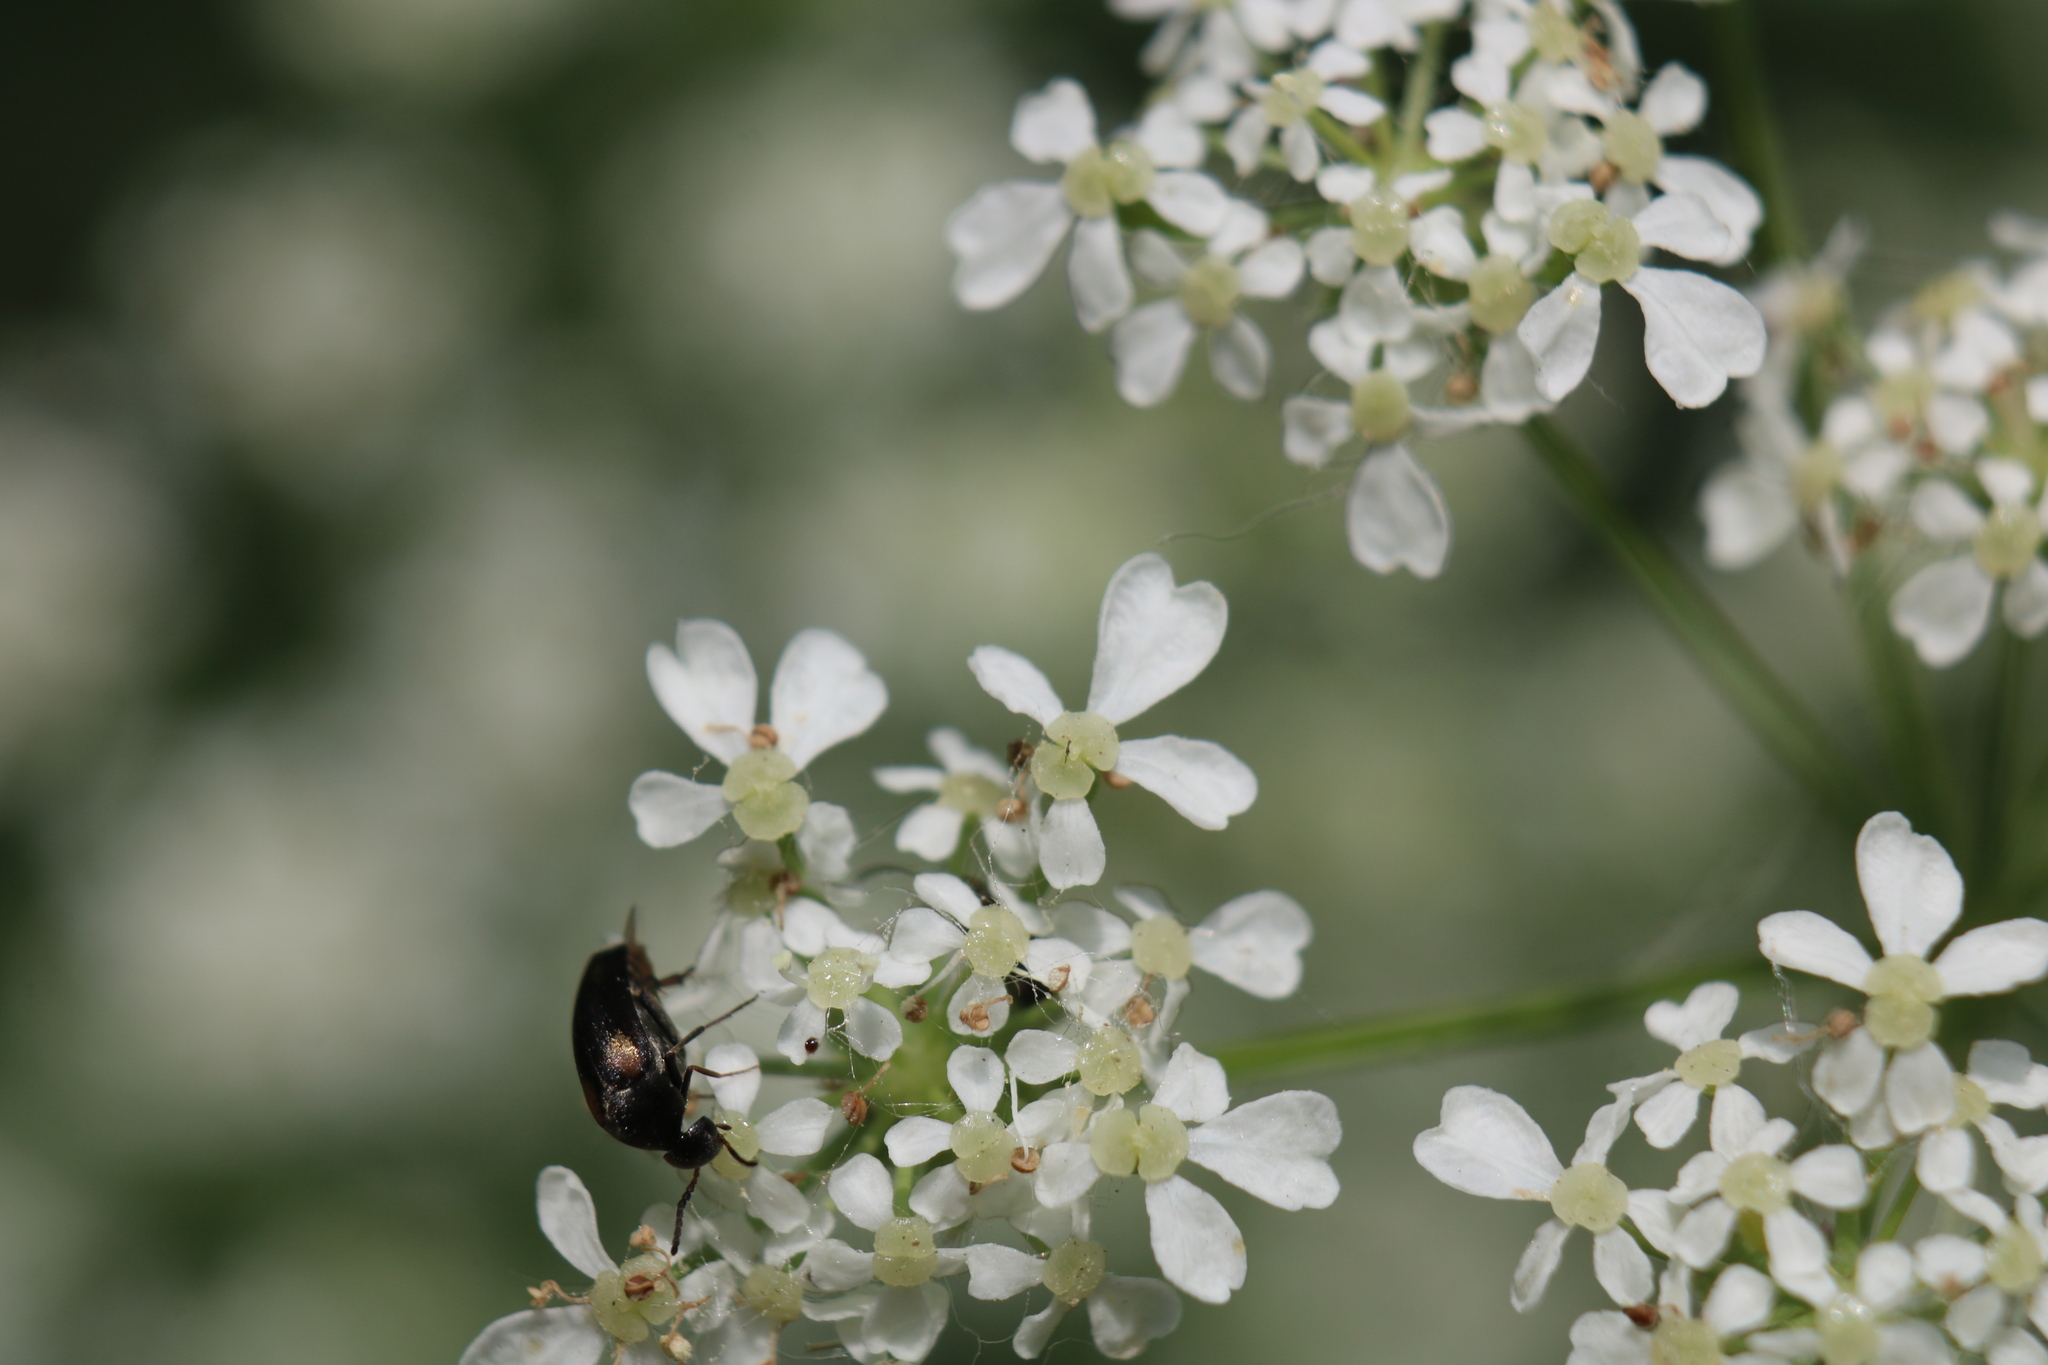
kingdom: Animalia
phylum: Arthropoda
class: Insecta
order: Coleoptera
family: Mordellidae
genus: Mordellochroa
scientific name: Mordellochroa scapularis
